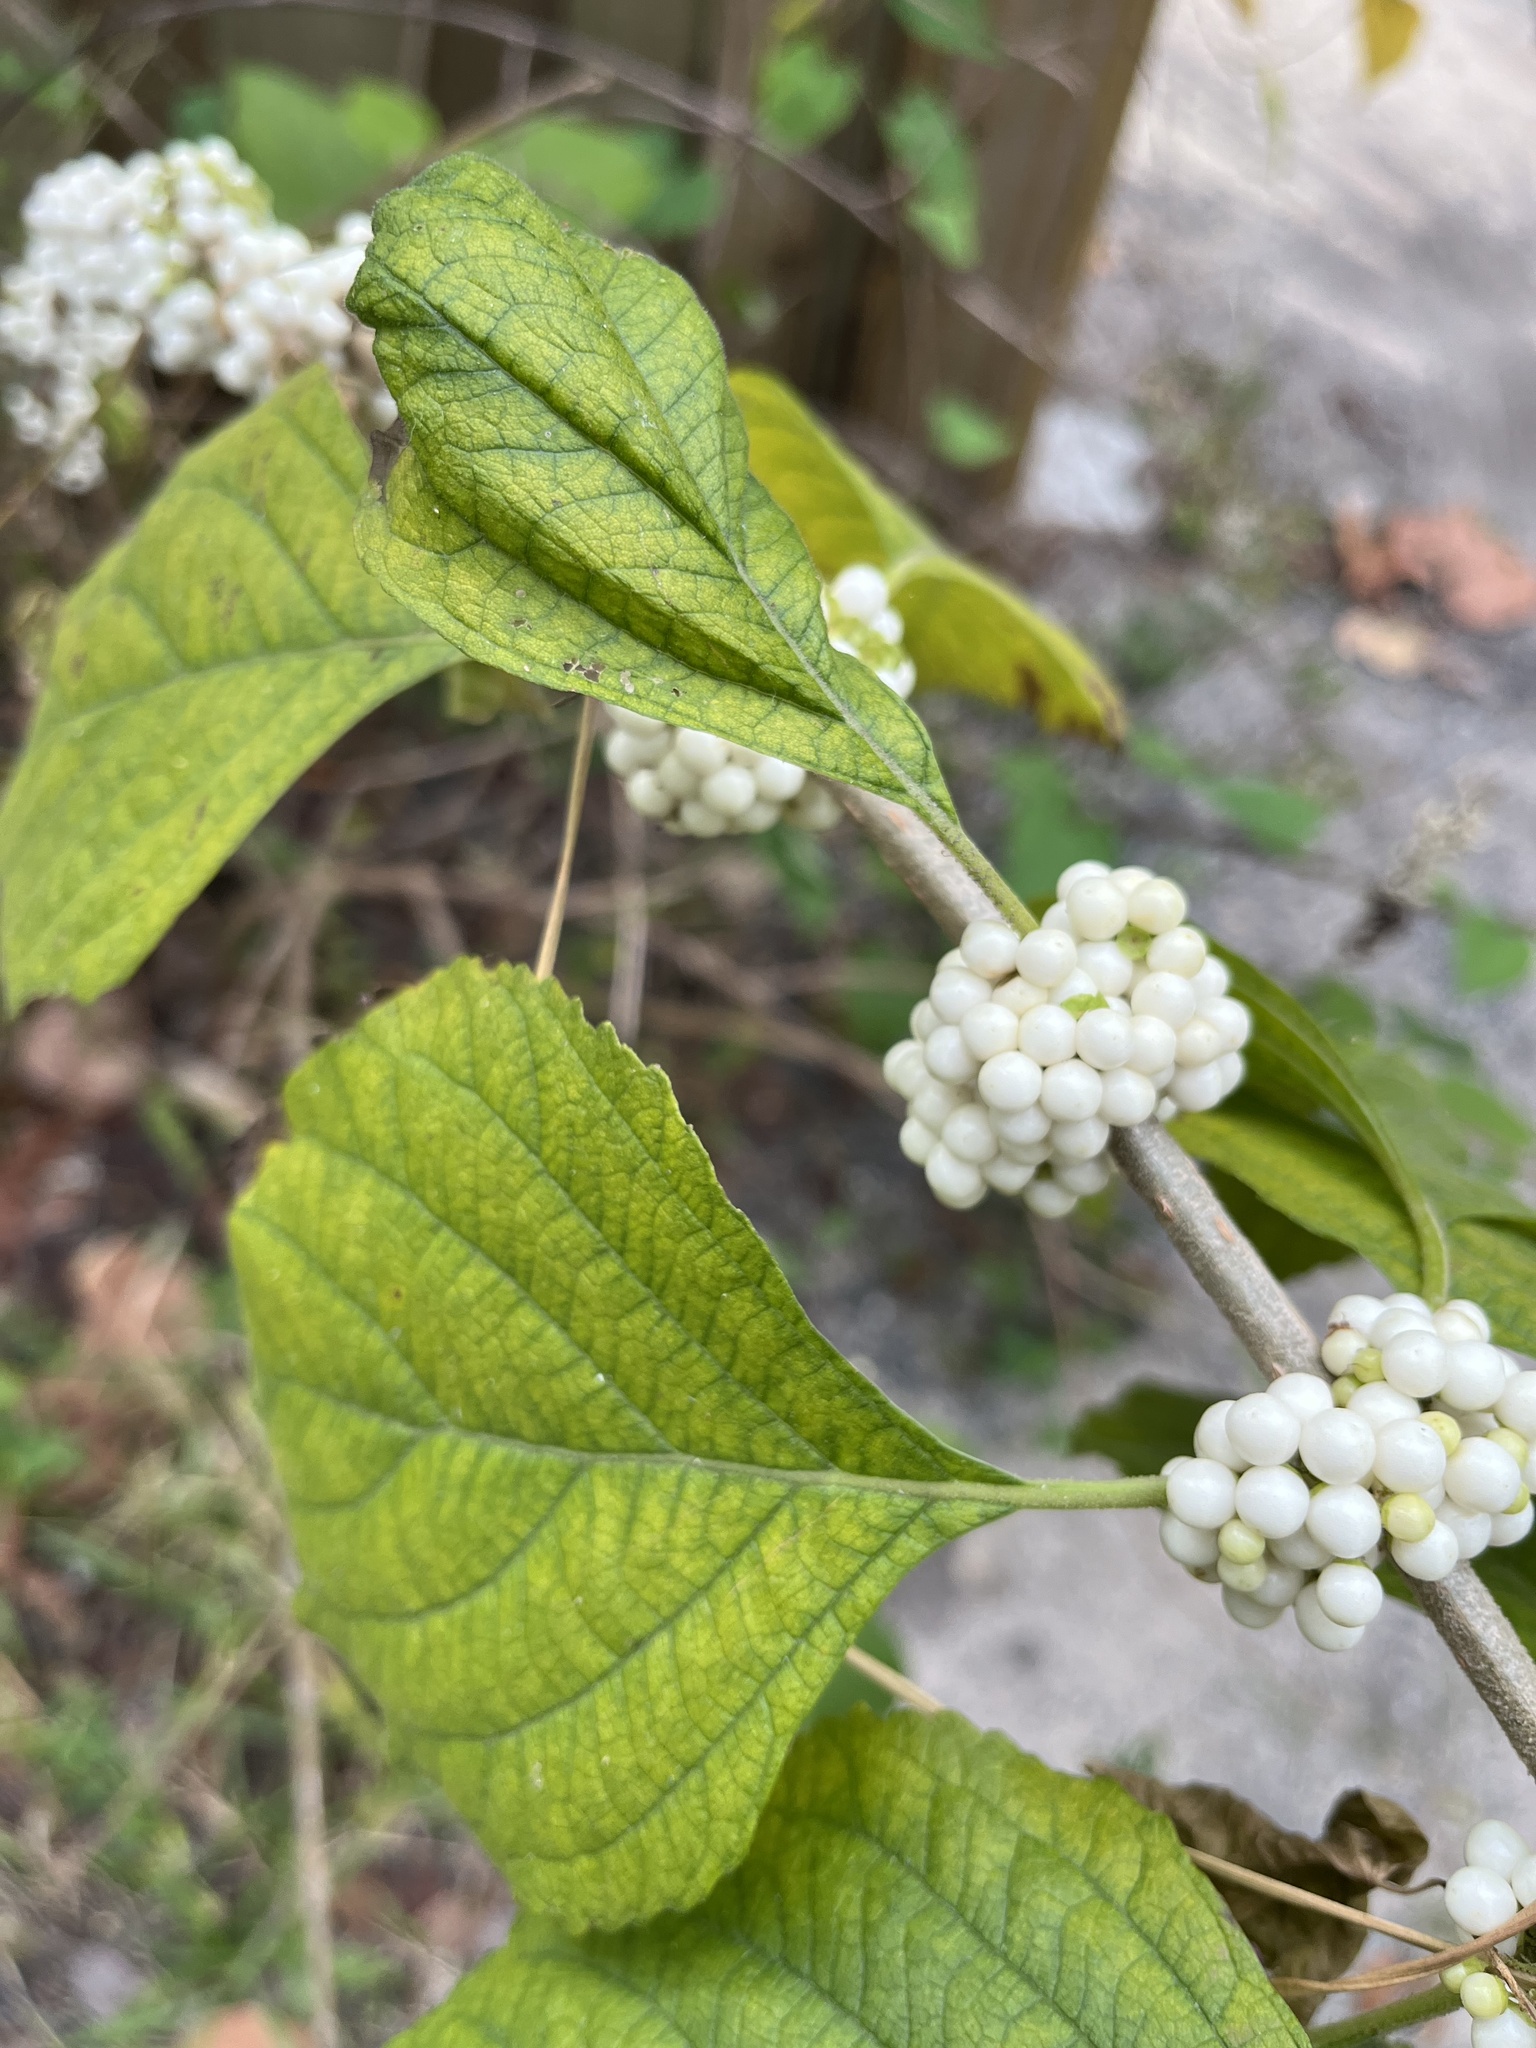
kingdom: Plantae
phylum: Tracheophyta
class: Magnoliopsida
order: Lamiales
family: Lamiaceae
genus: Callicarpa
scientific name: Callicarpa americana
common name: American beautyberry
